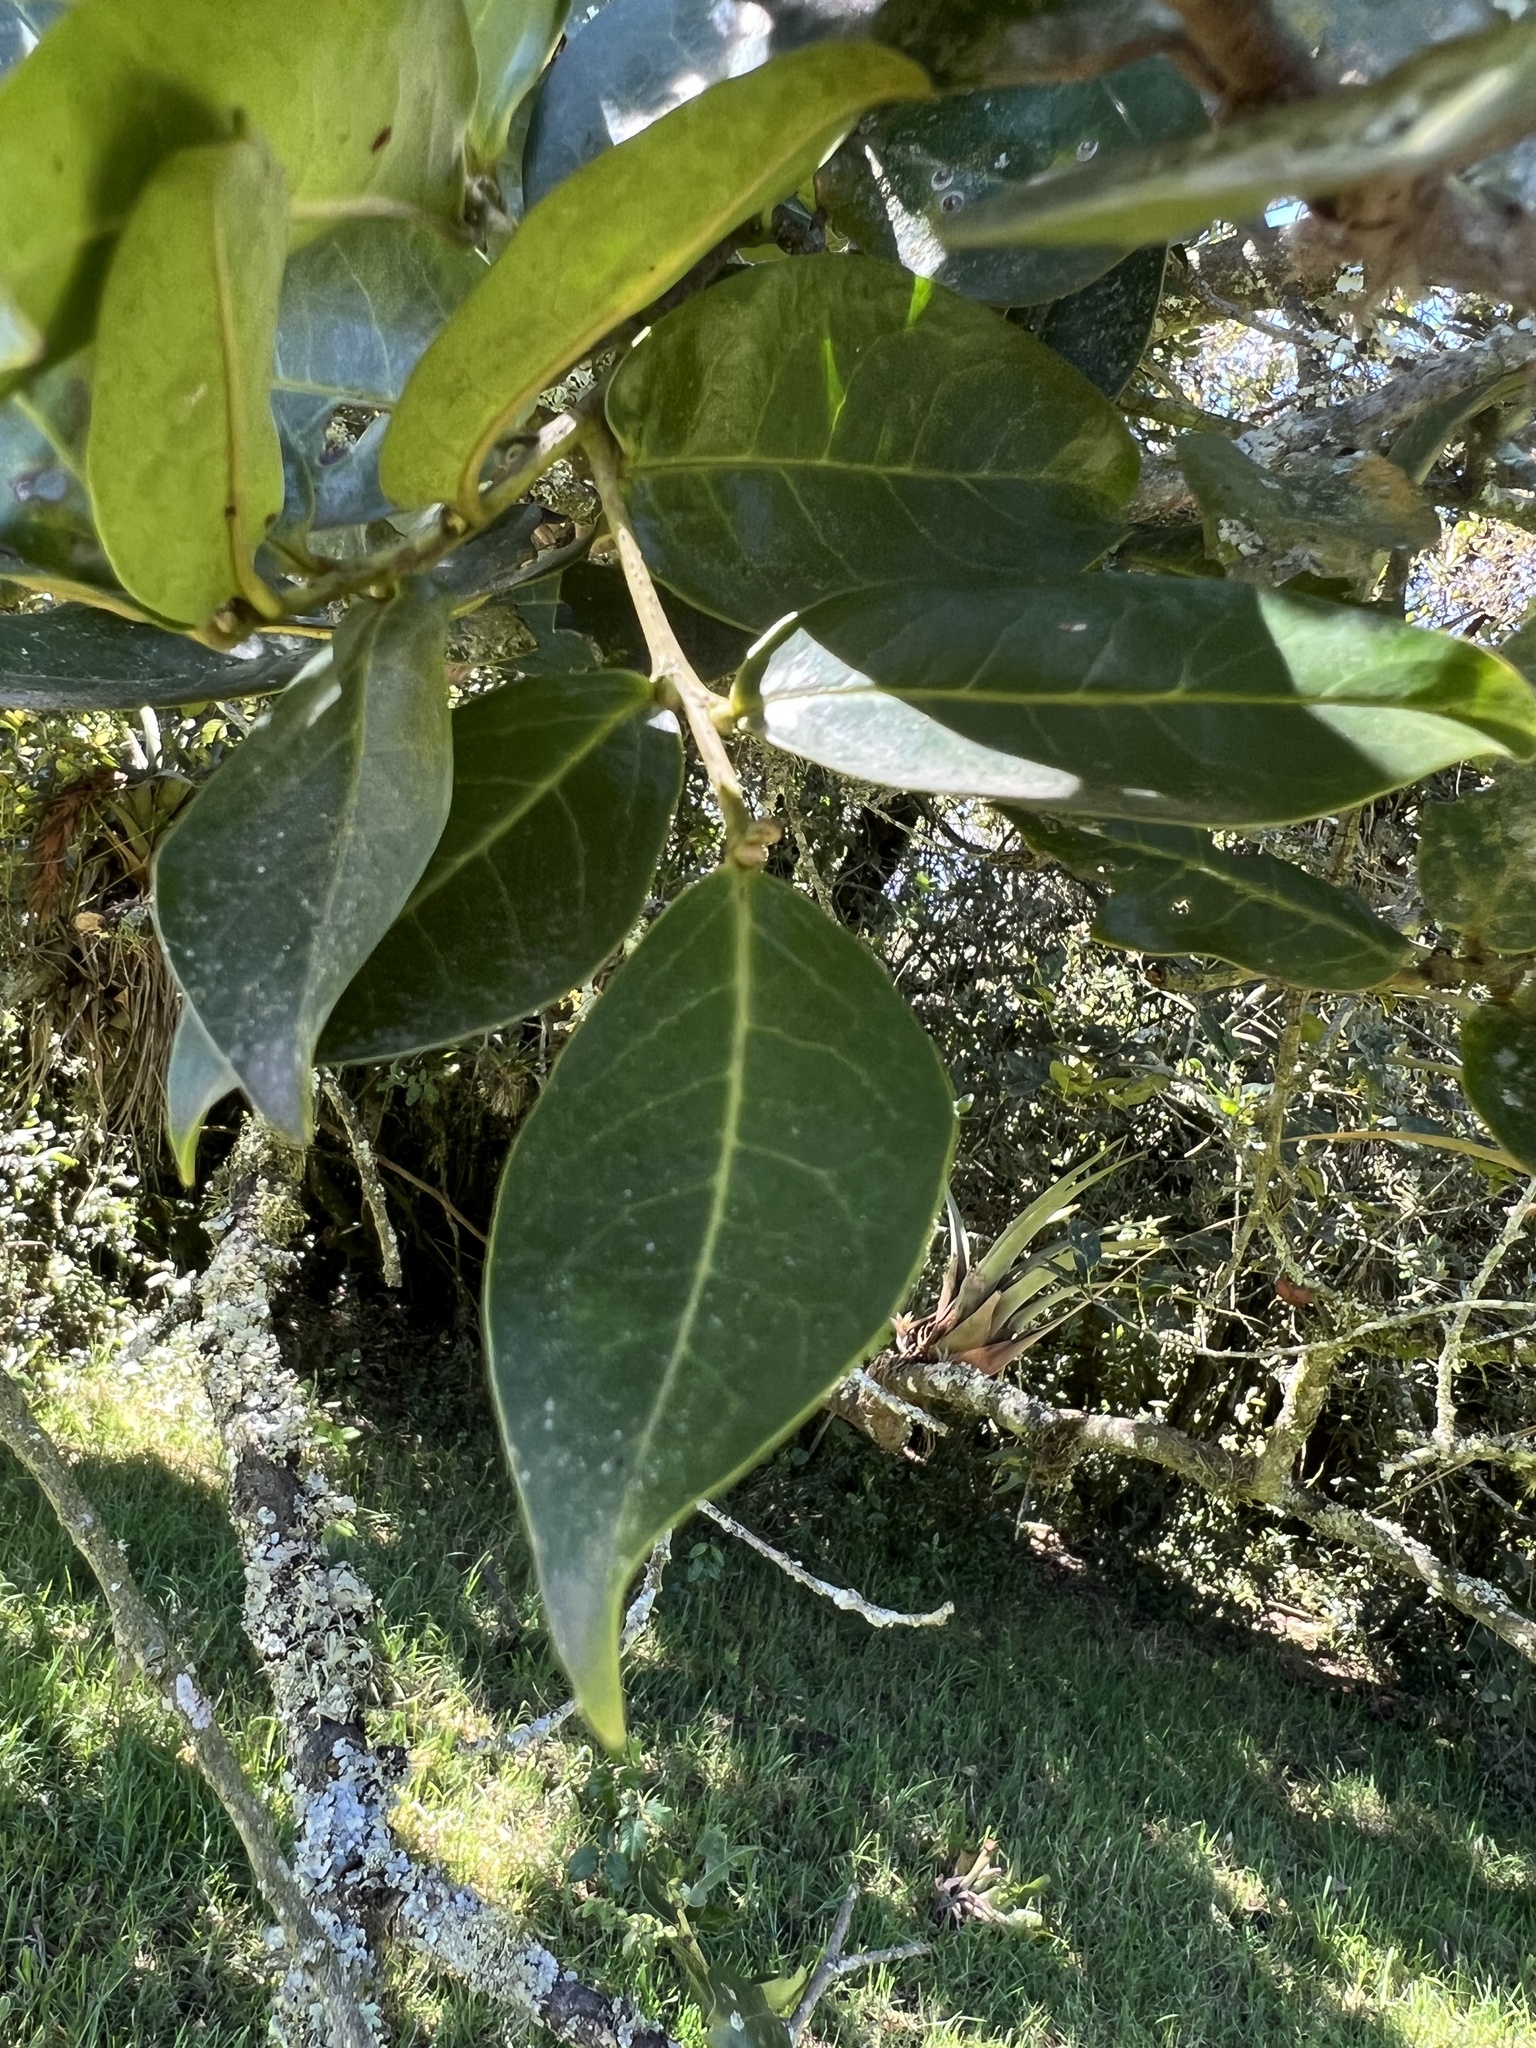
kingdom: Plantae
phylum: Tracheophyta
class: Magnoliopsida
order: Rosales
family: Rosaceae
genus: Prunus
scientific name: Prunus buxifolia
